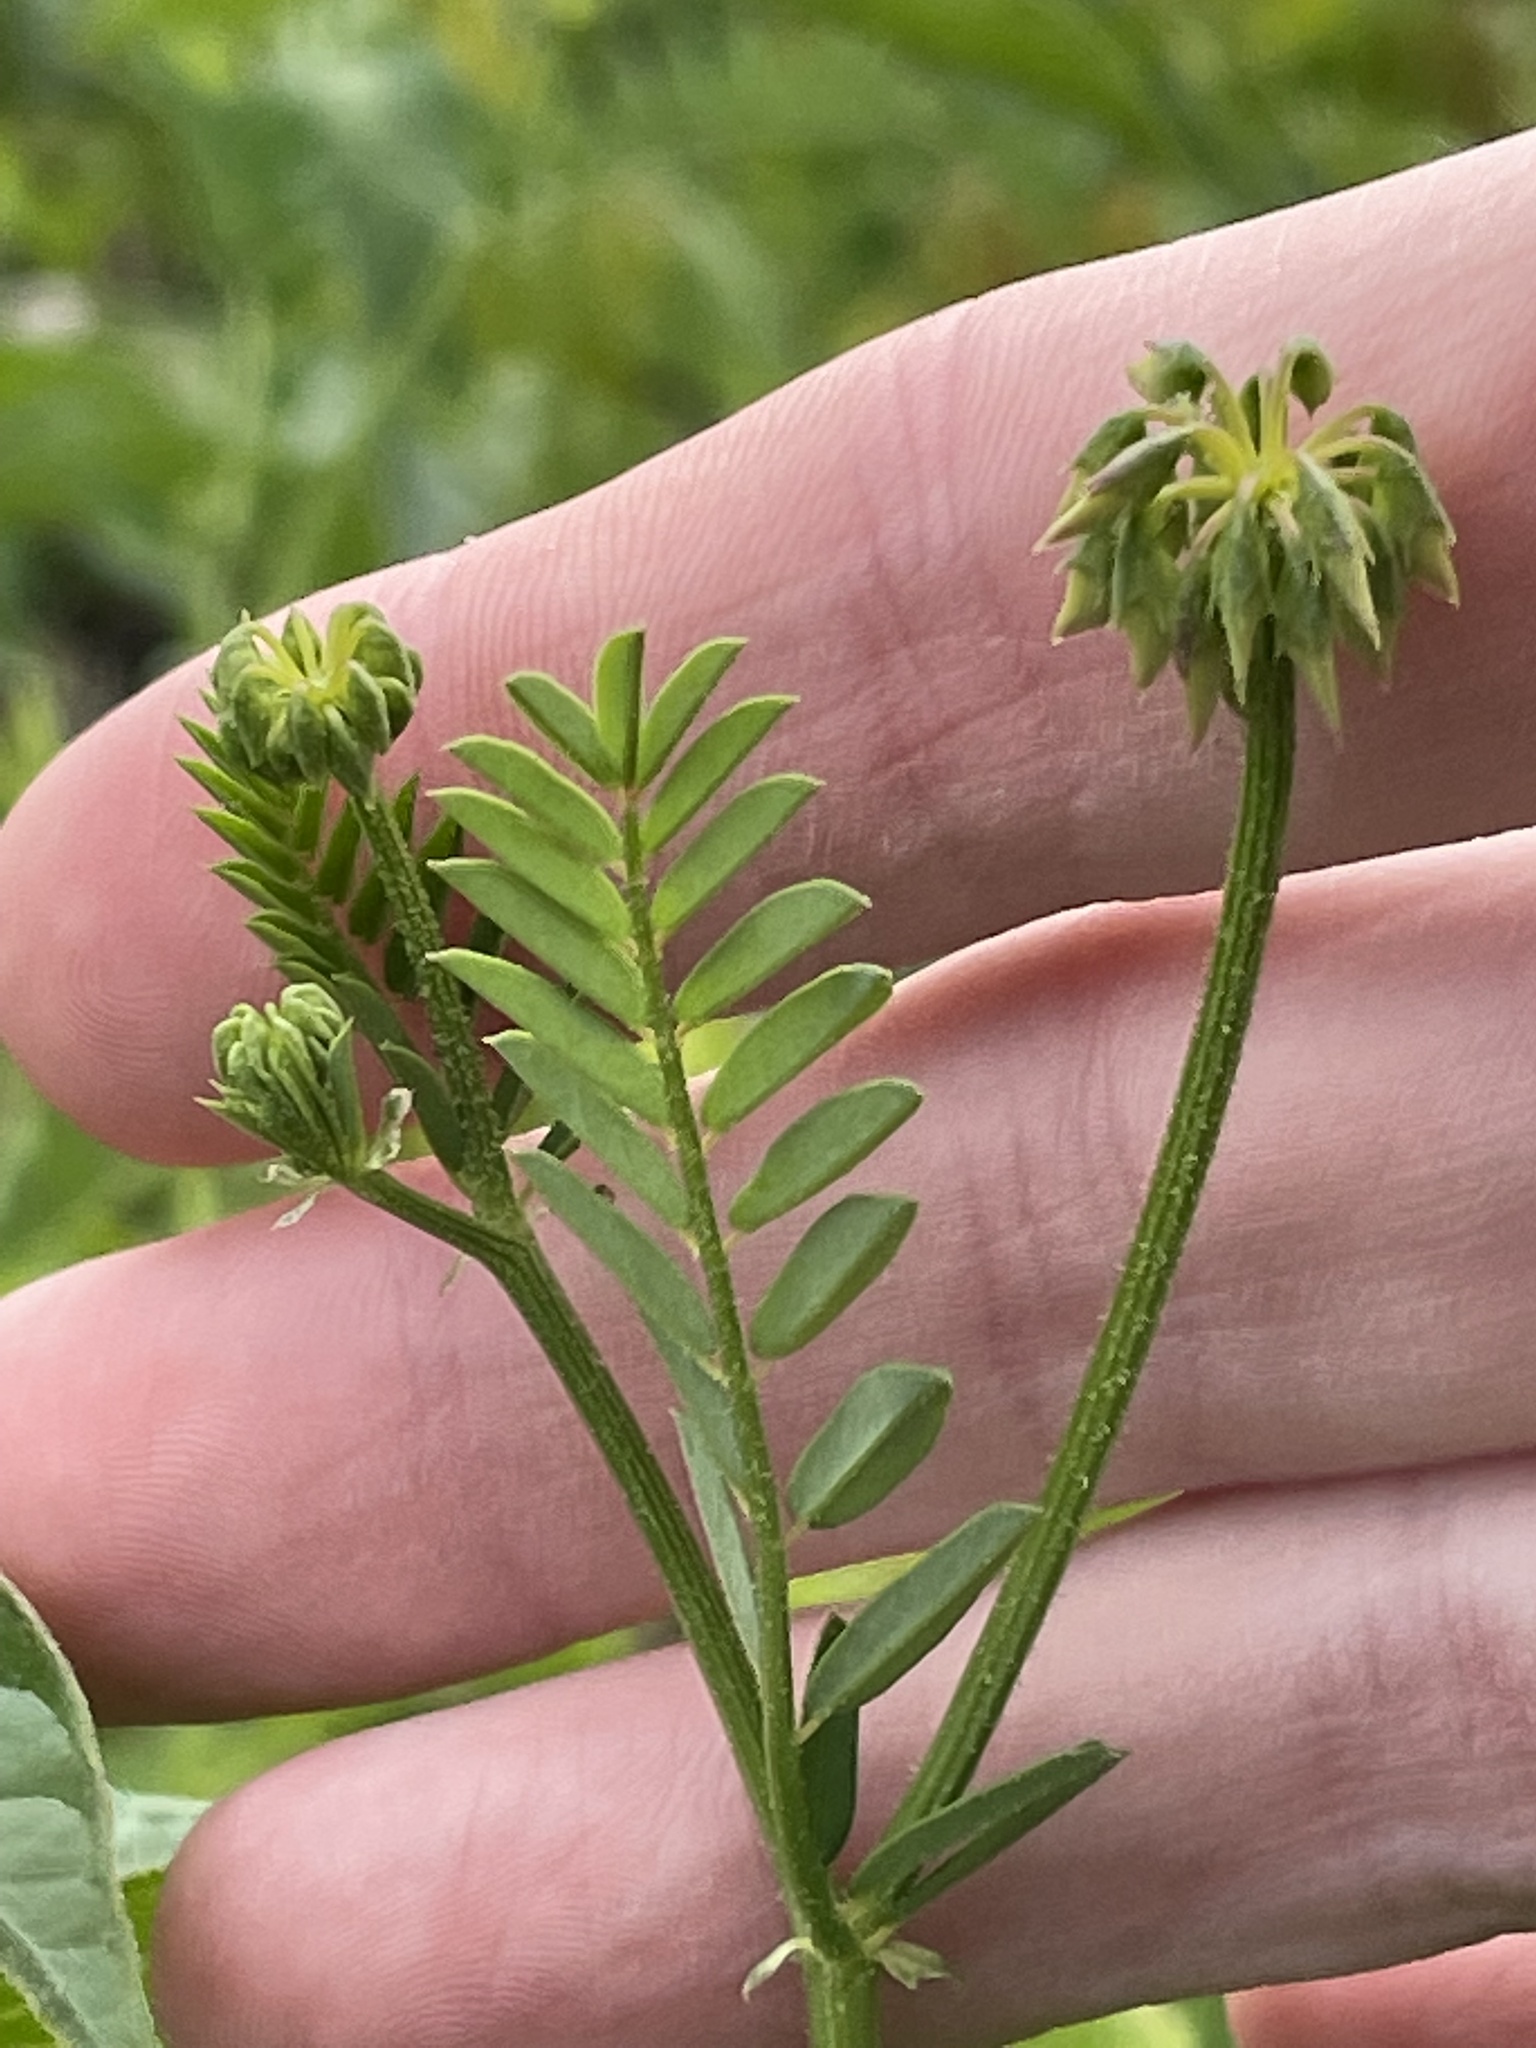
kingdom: Plantae
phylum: Tracheophyta
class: Magnoliopsida
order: Fabales
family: Fabaceae
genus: Coronilla
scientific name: Coronilla varia
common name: Crownvetch
